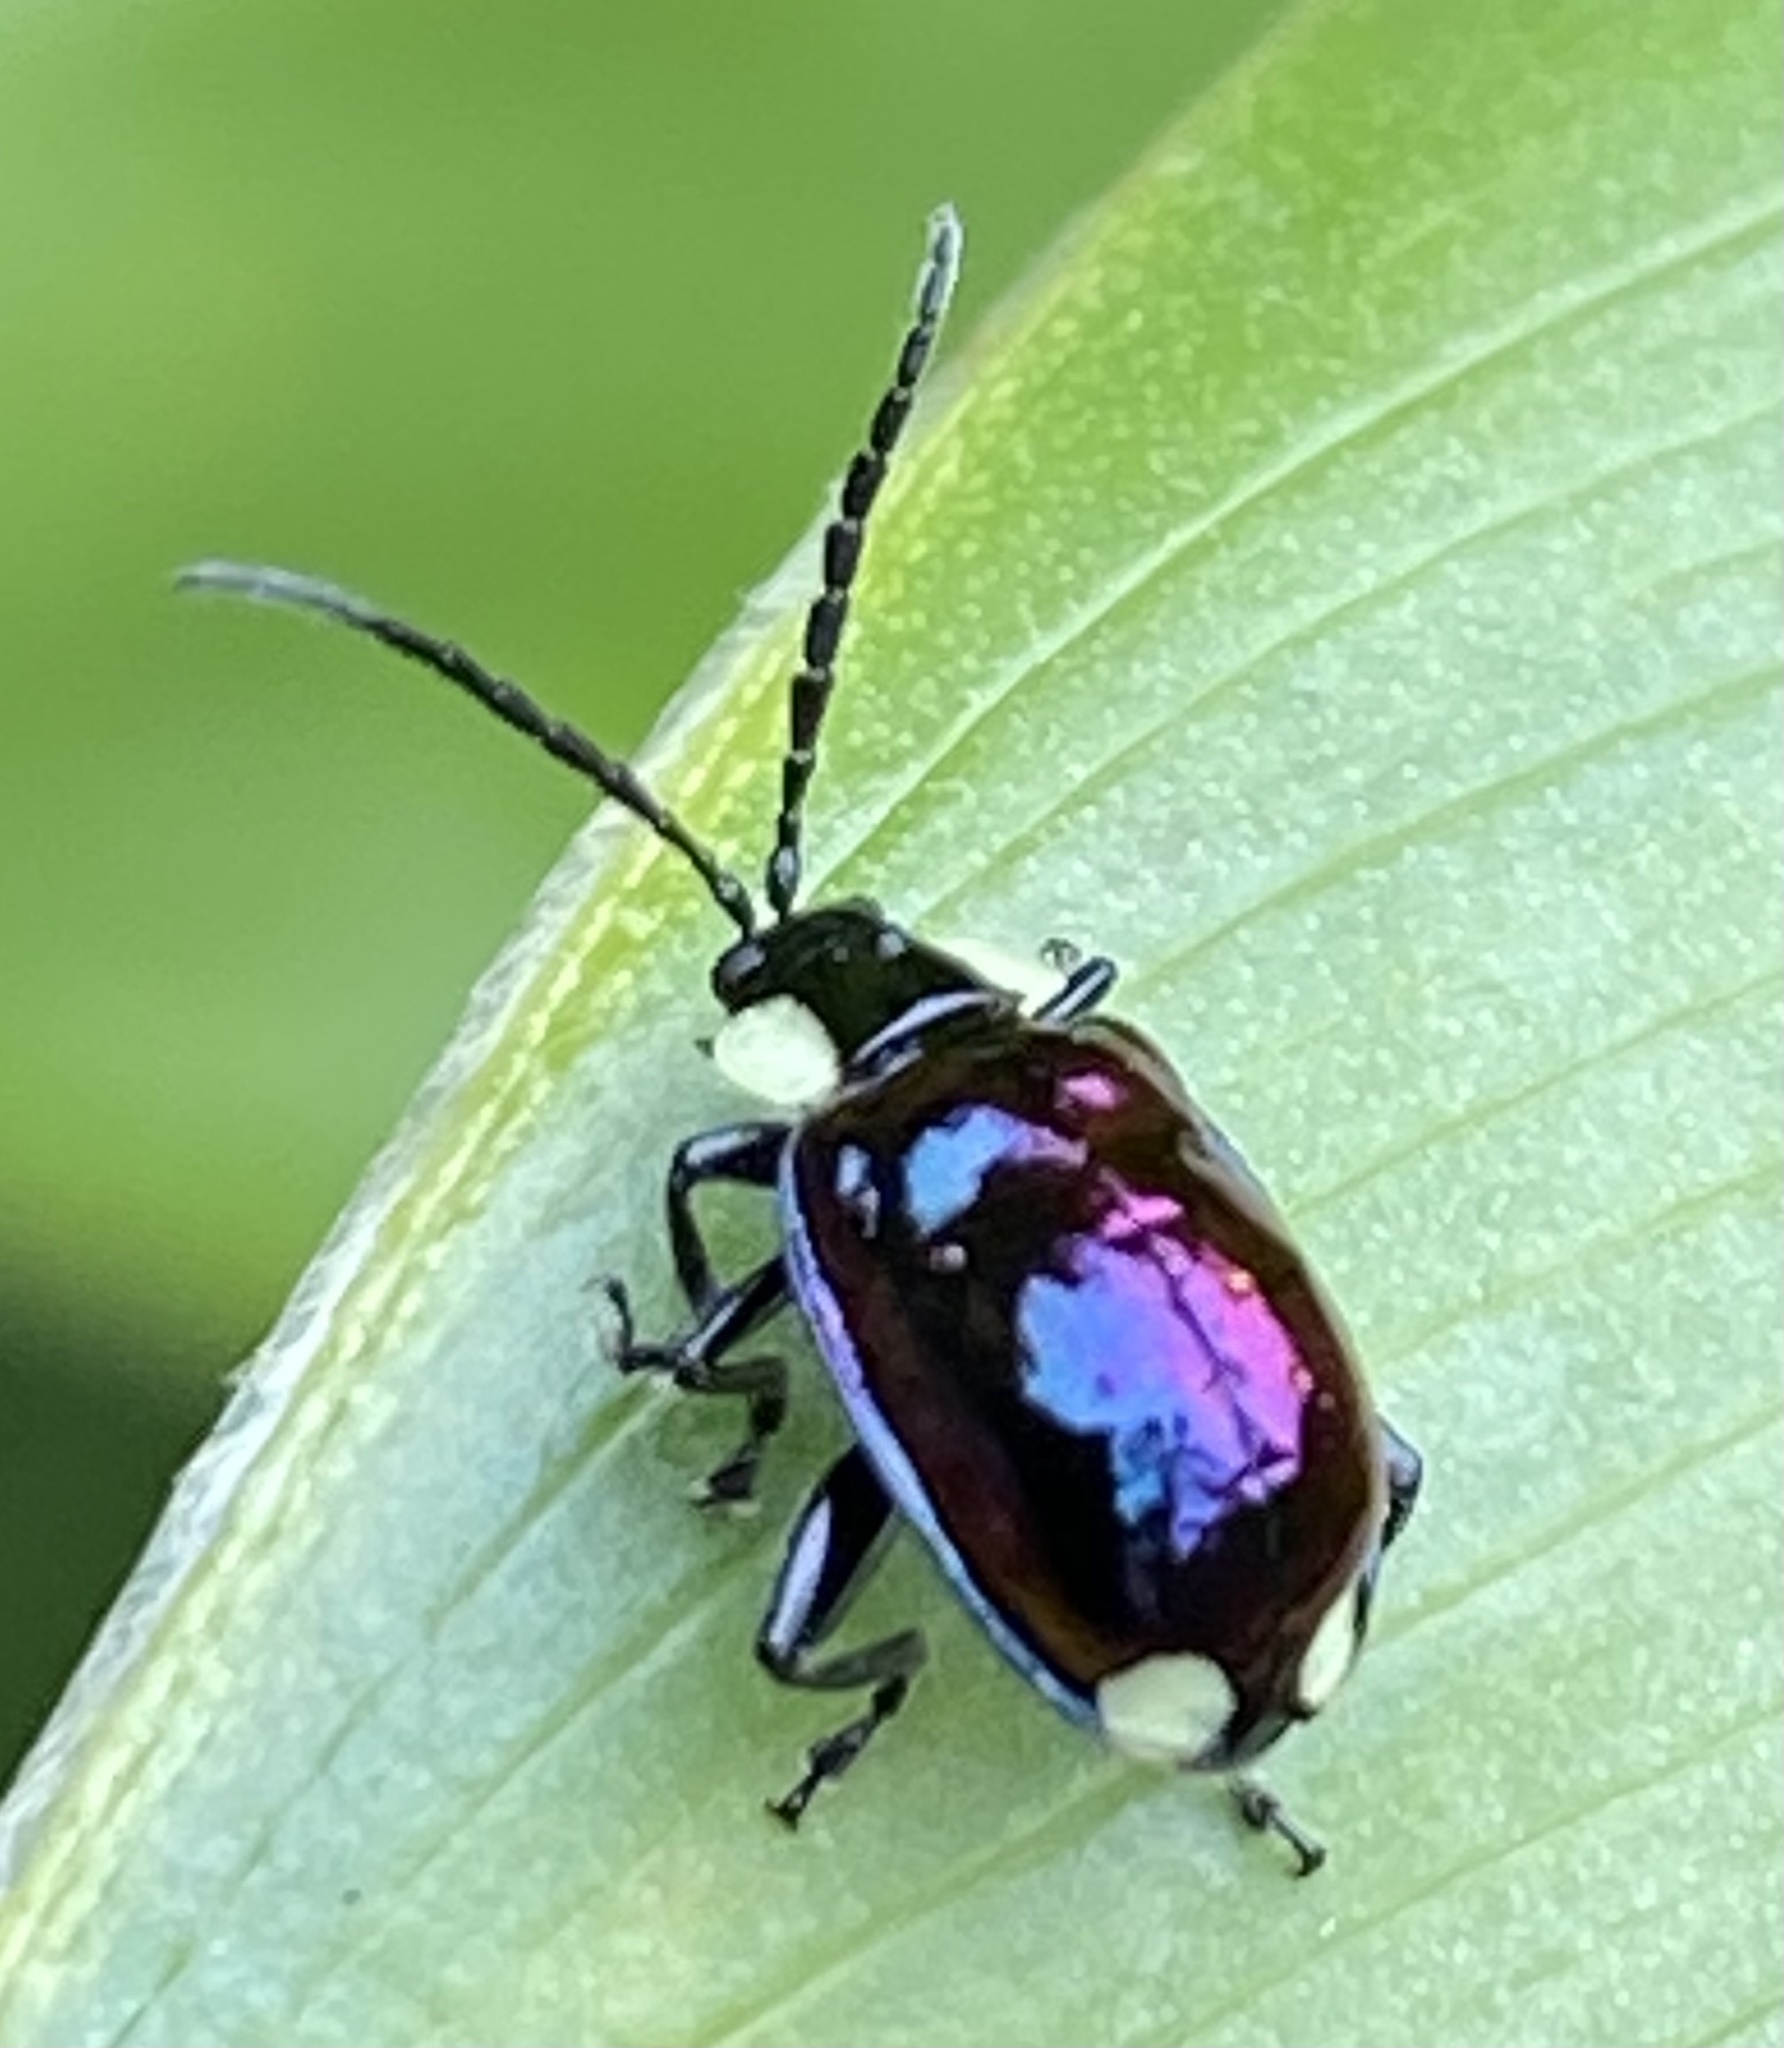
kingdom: Animalia
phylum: Arthropoda
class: Insecta
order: Coleoptera
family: Chrysomelidae
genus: Alagoasa
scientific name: Alagoasa
